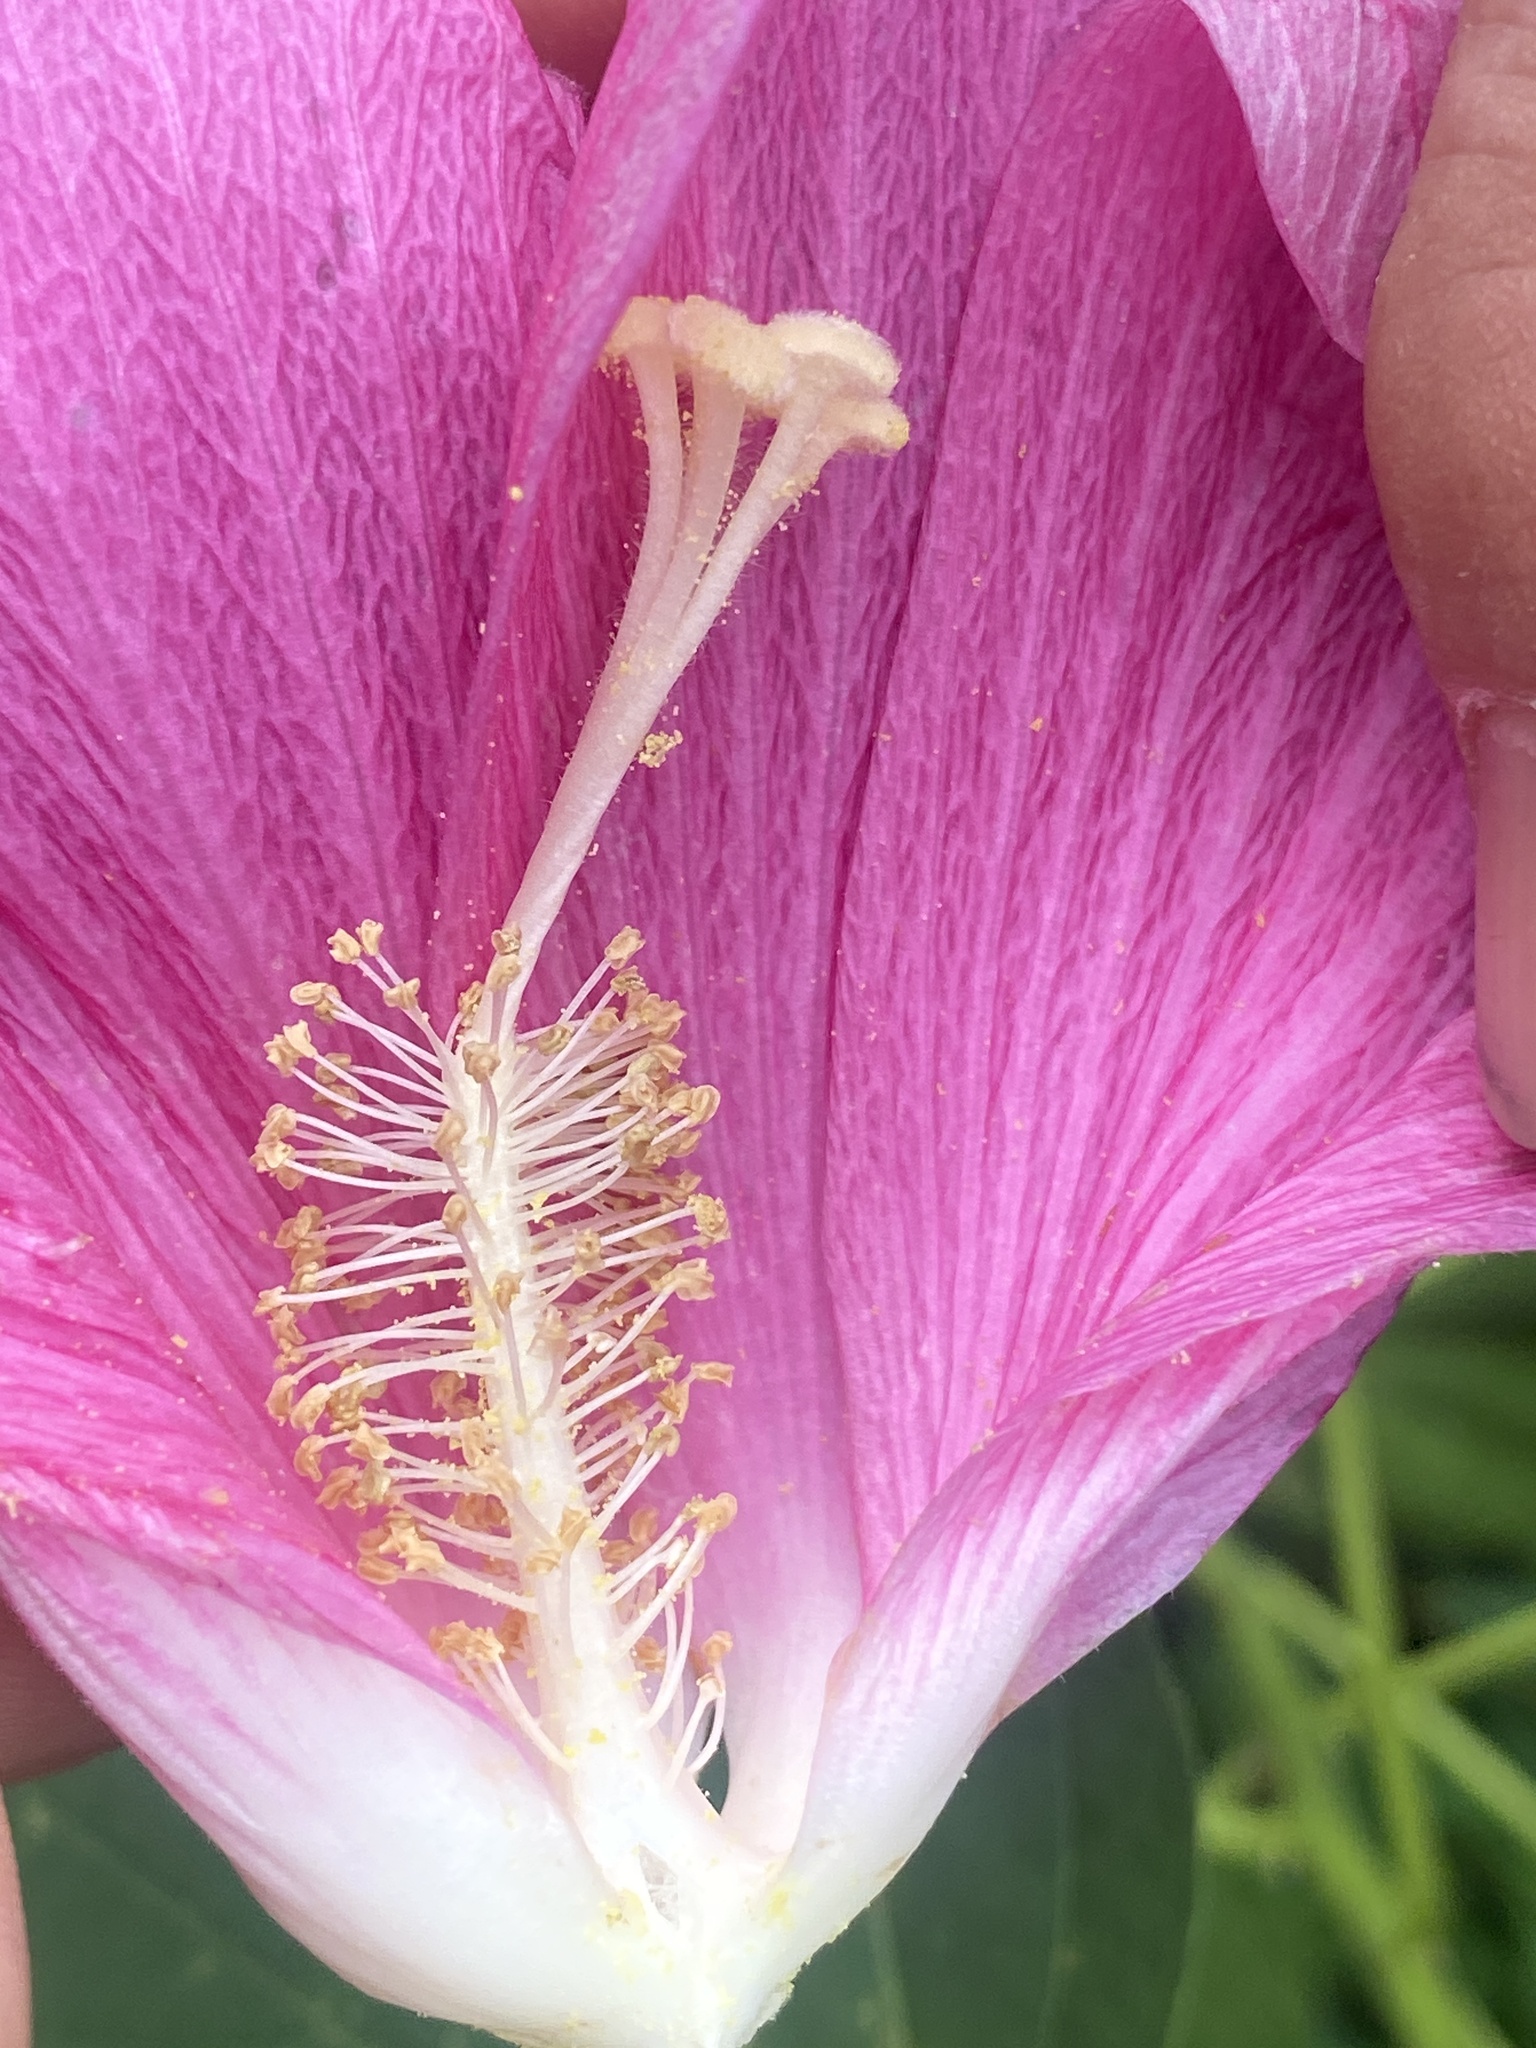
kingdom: Plantae
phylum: Tracheophyta
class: Magnoliopsida
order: Malvales
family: Malvaceae
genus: Hibiscus
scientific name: Hibiscus moscheutos
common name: Common rose-mallow
